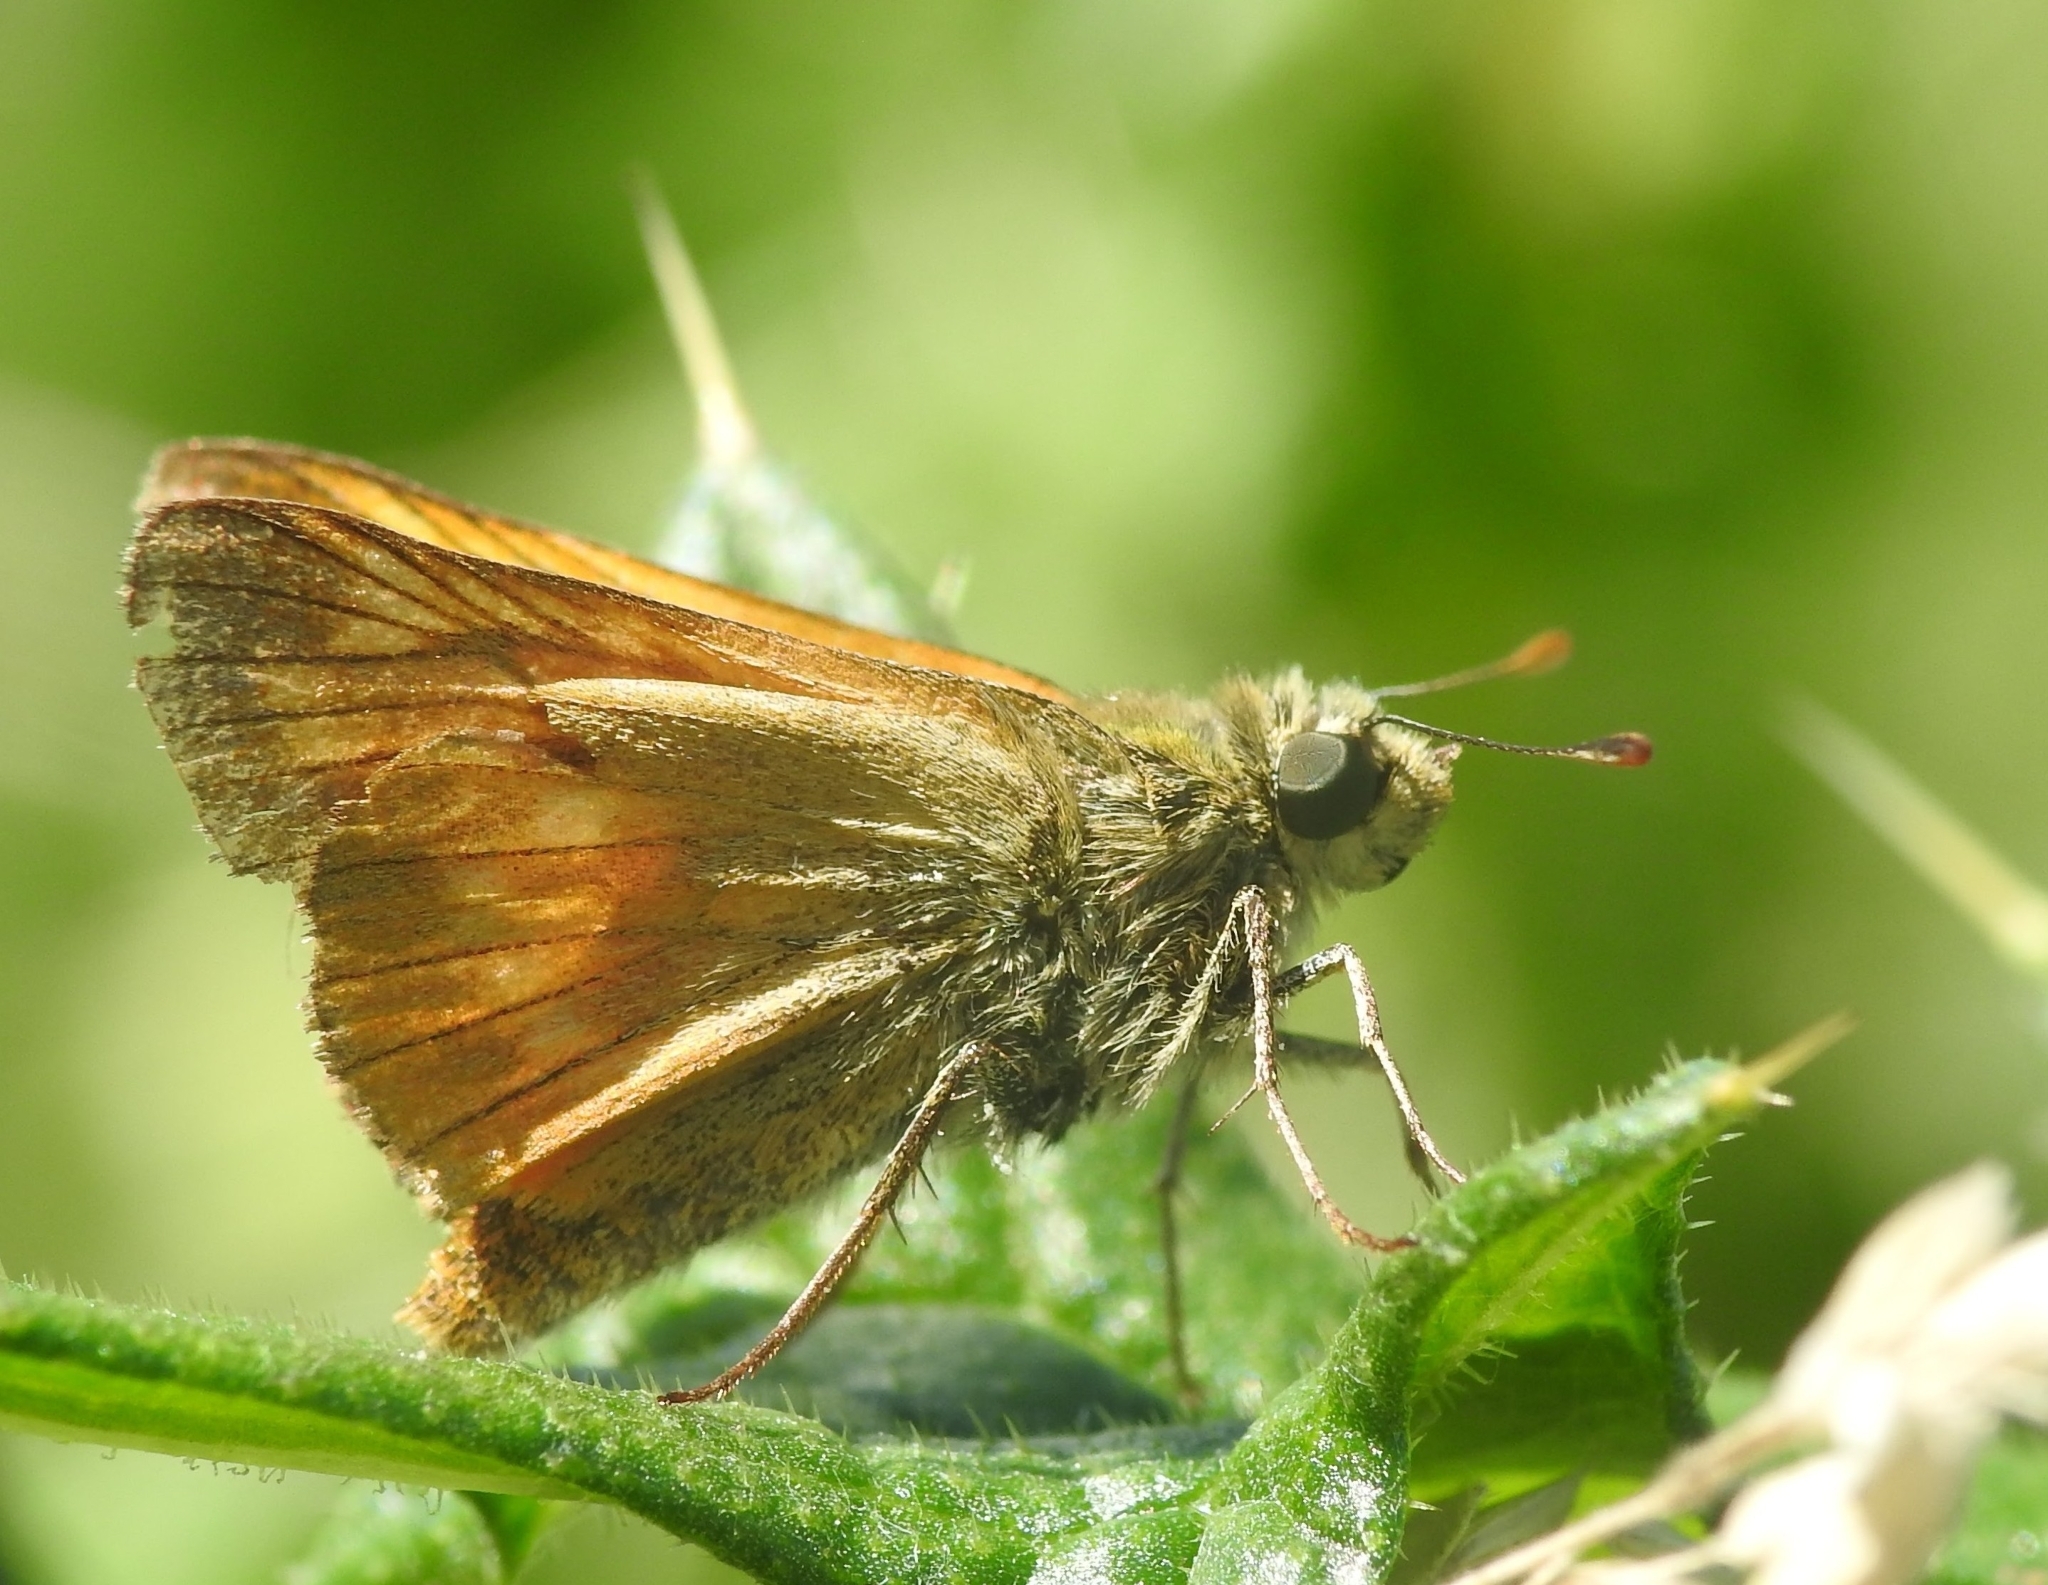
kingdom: Animalia
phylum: Arthropoda
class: Insecta
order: Lepidoptera
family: Hesperiidae
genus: Ochlodes
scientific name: Ochlodes venata
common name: Large skipper
